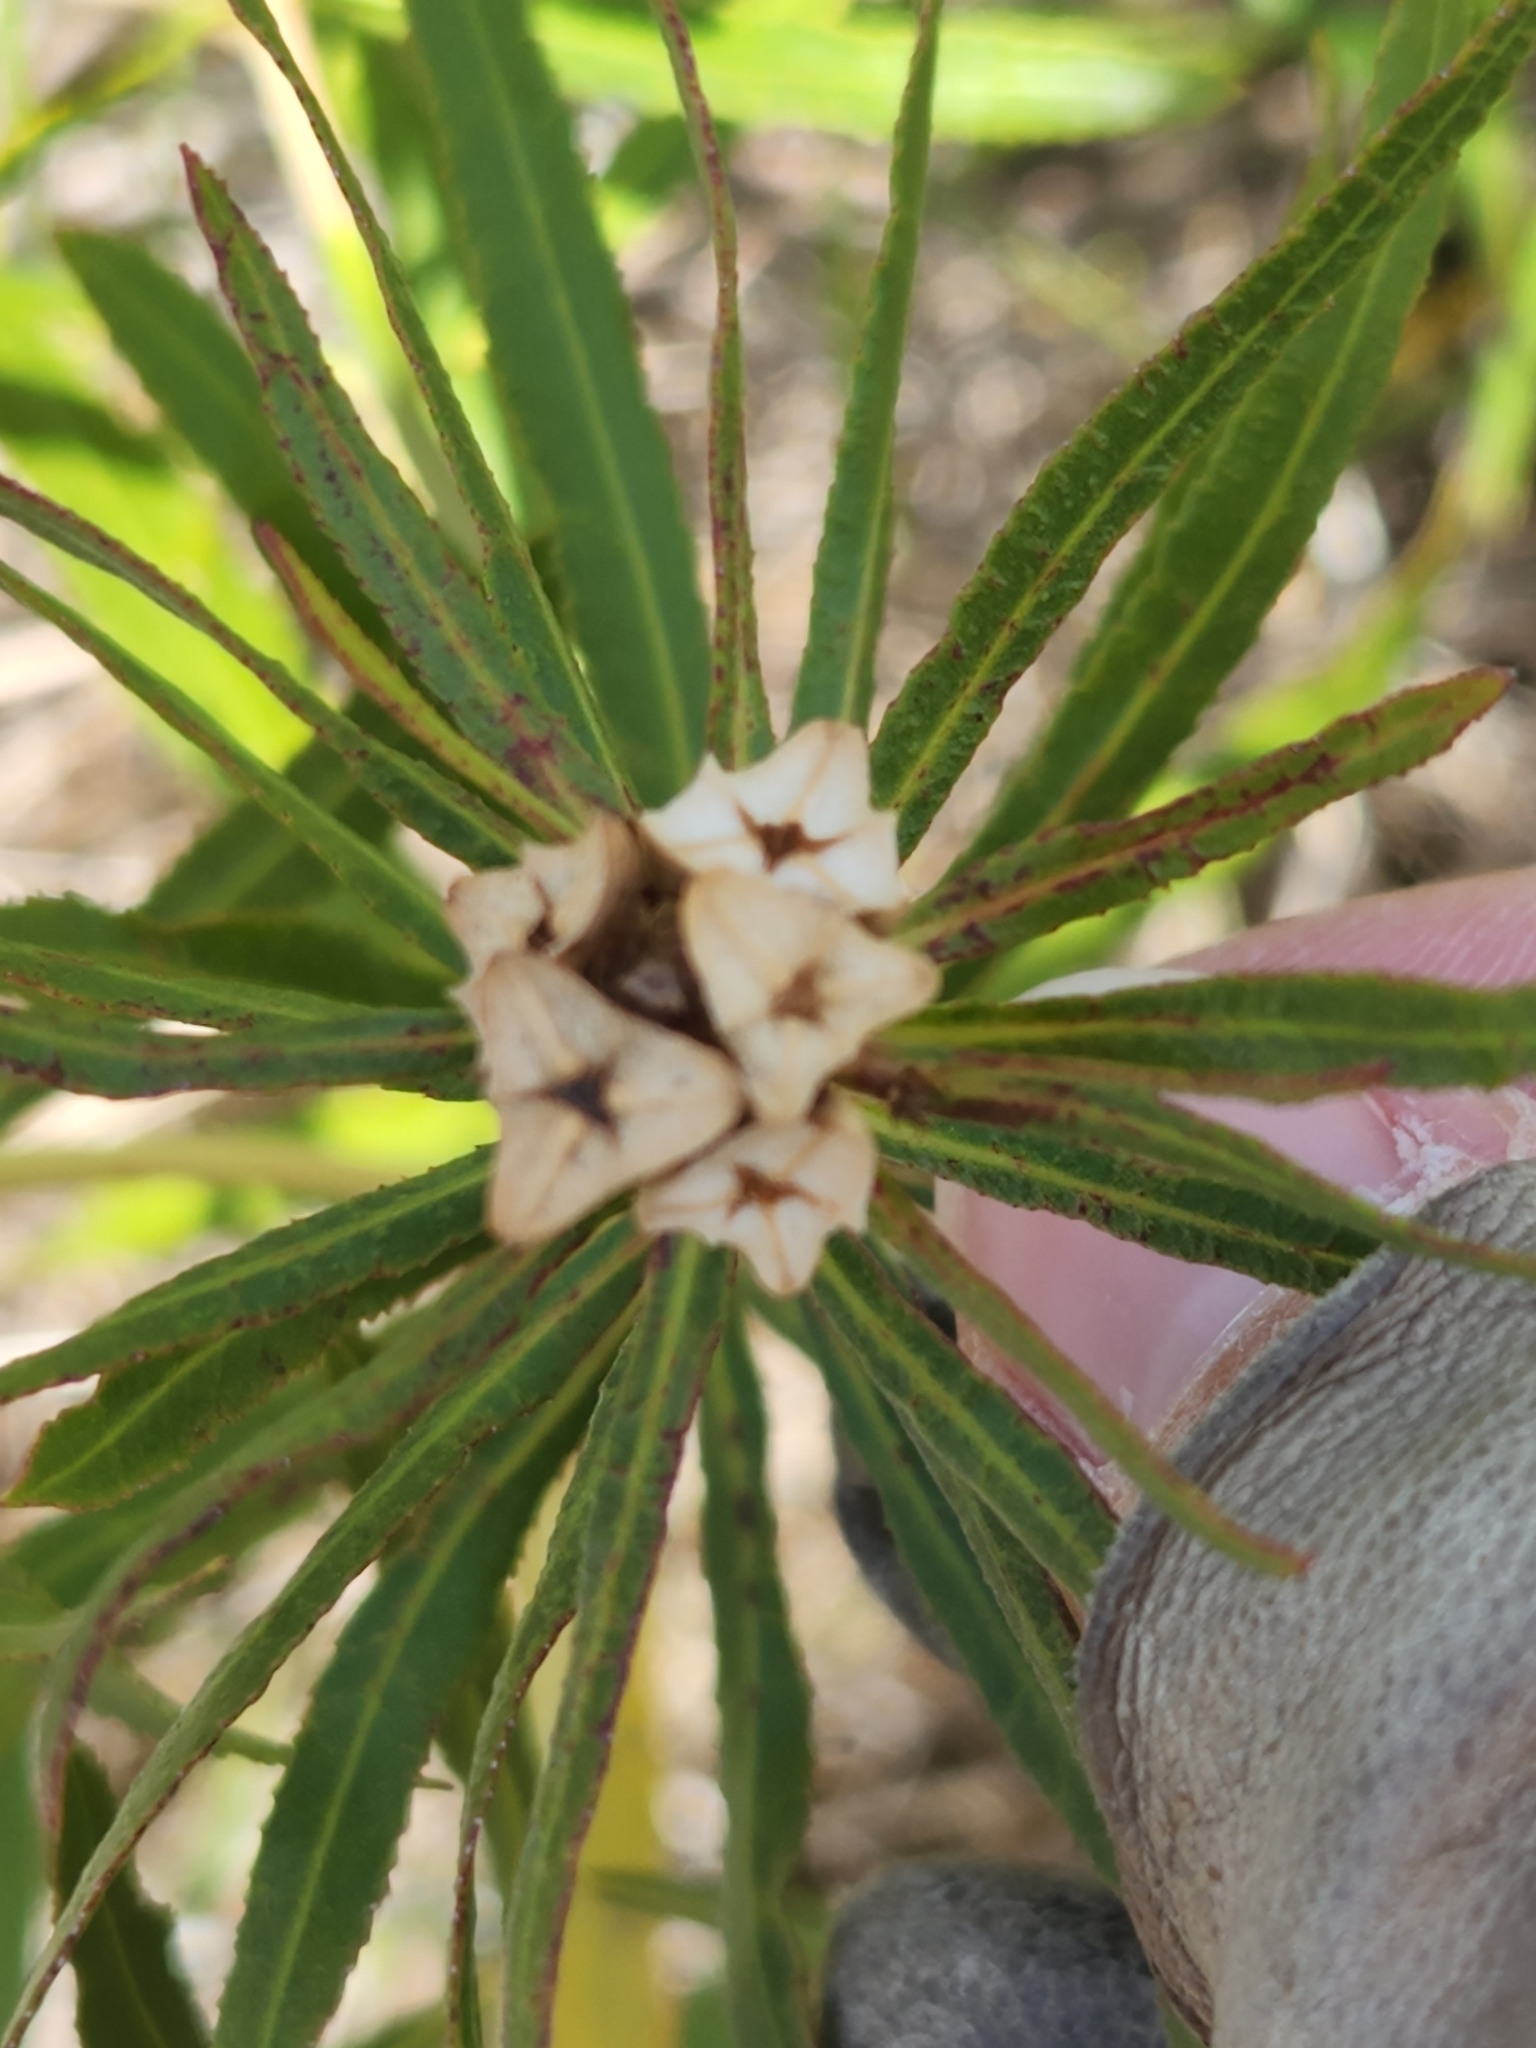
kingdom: Plantae
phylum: Tracheophyta
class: Magnoliopsida
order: Malpighiales
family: Euphorbiaceae
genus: Stillingia
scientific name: Stillingia texana
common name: Texas stillingia
